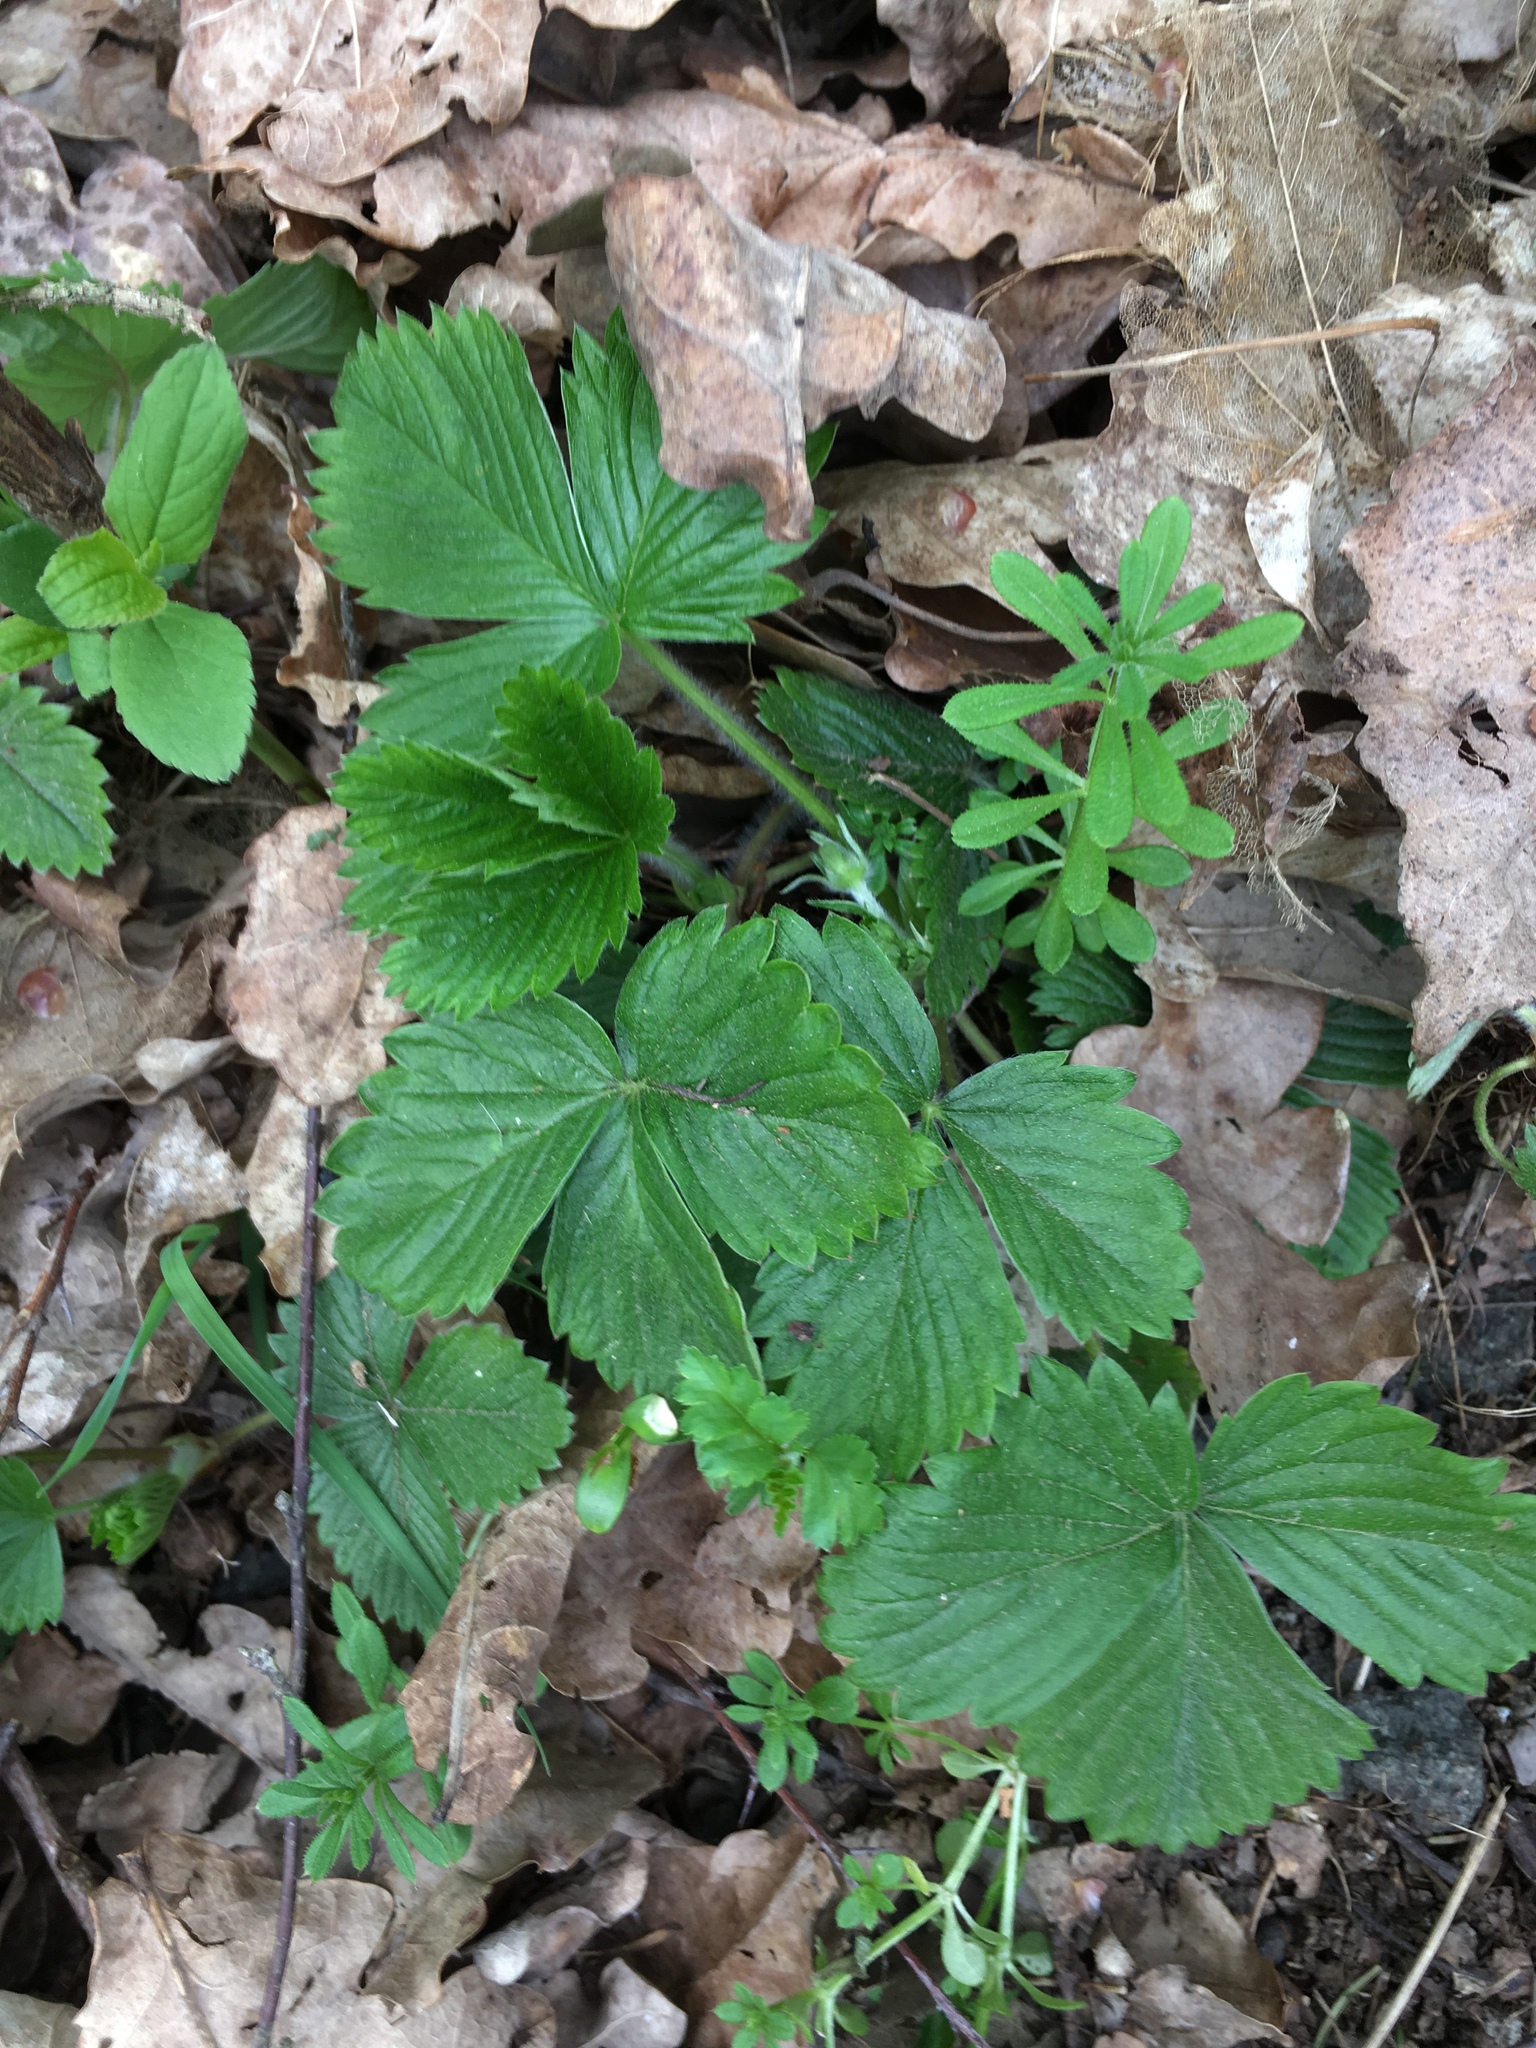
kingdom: Plantae
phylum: Tracheophyta
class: Magnoliopsida
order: Rosales
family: Rosaceae
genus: Fragaria
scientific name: Fragaria vesca
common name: Wild strawberry
